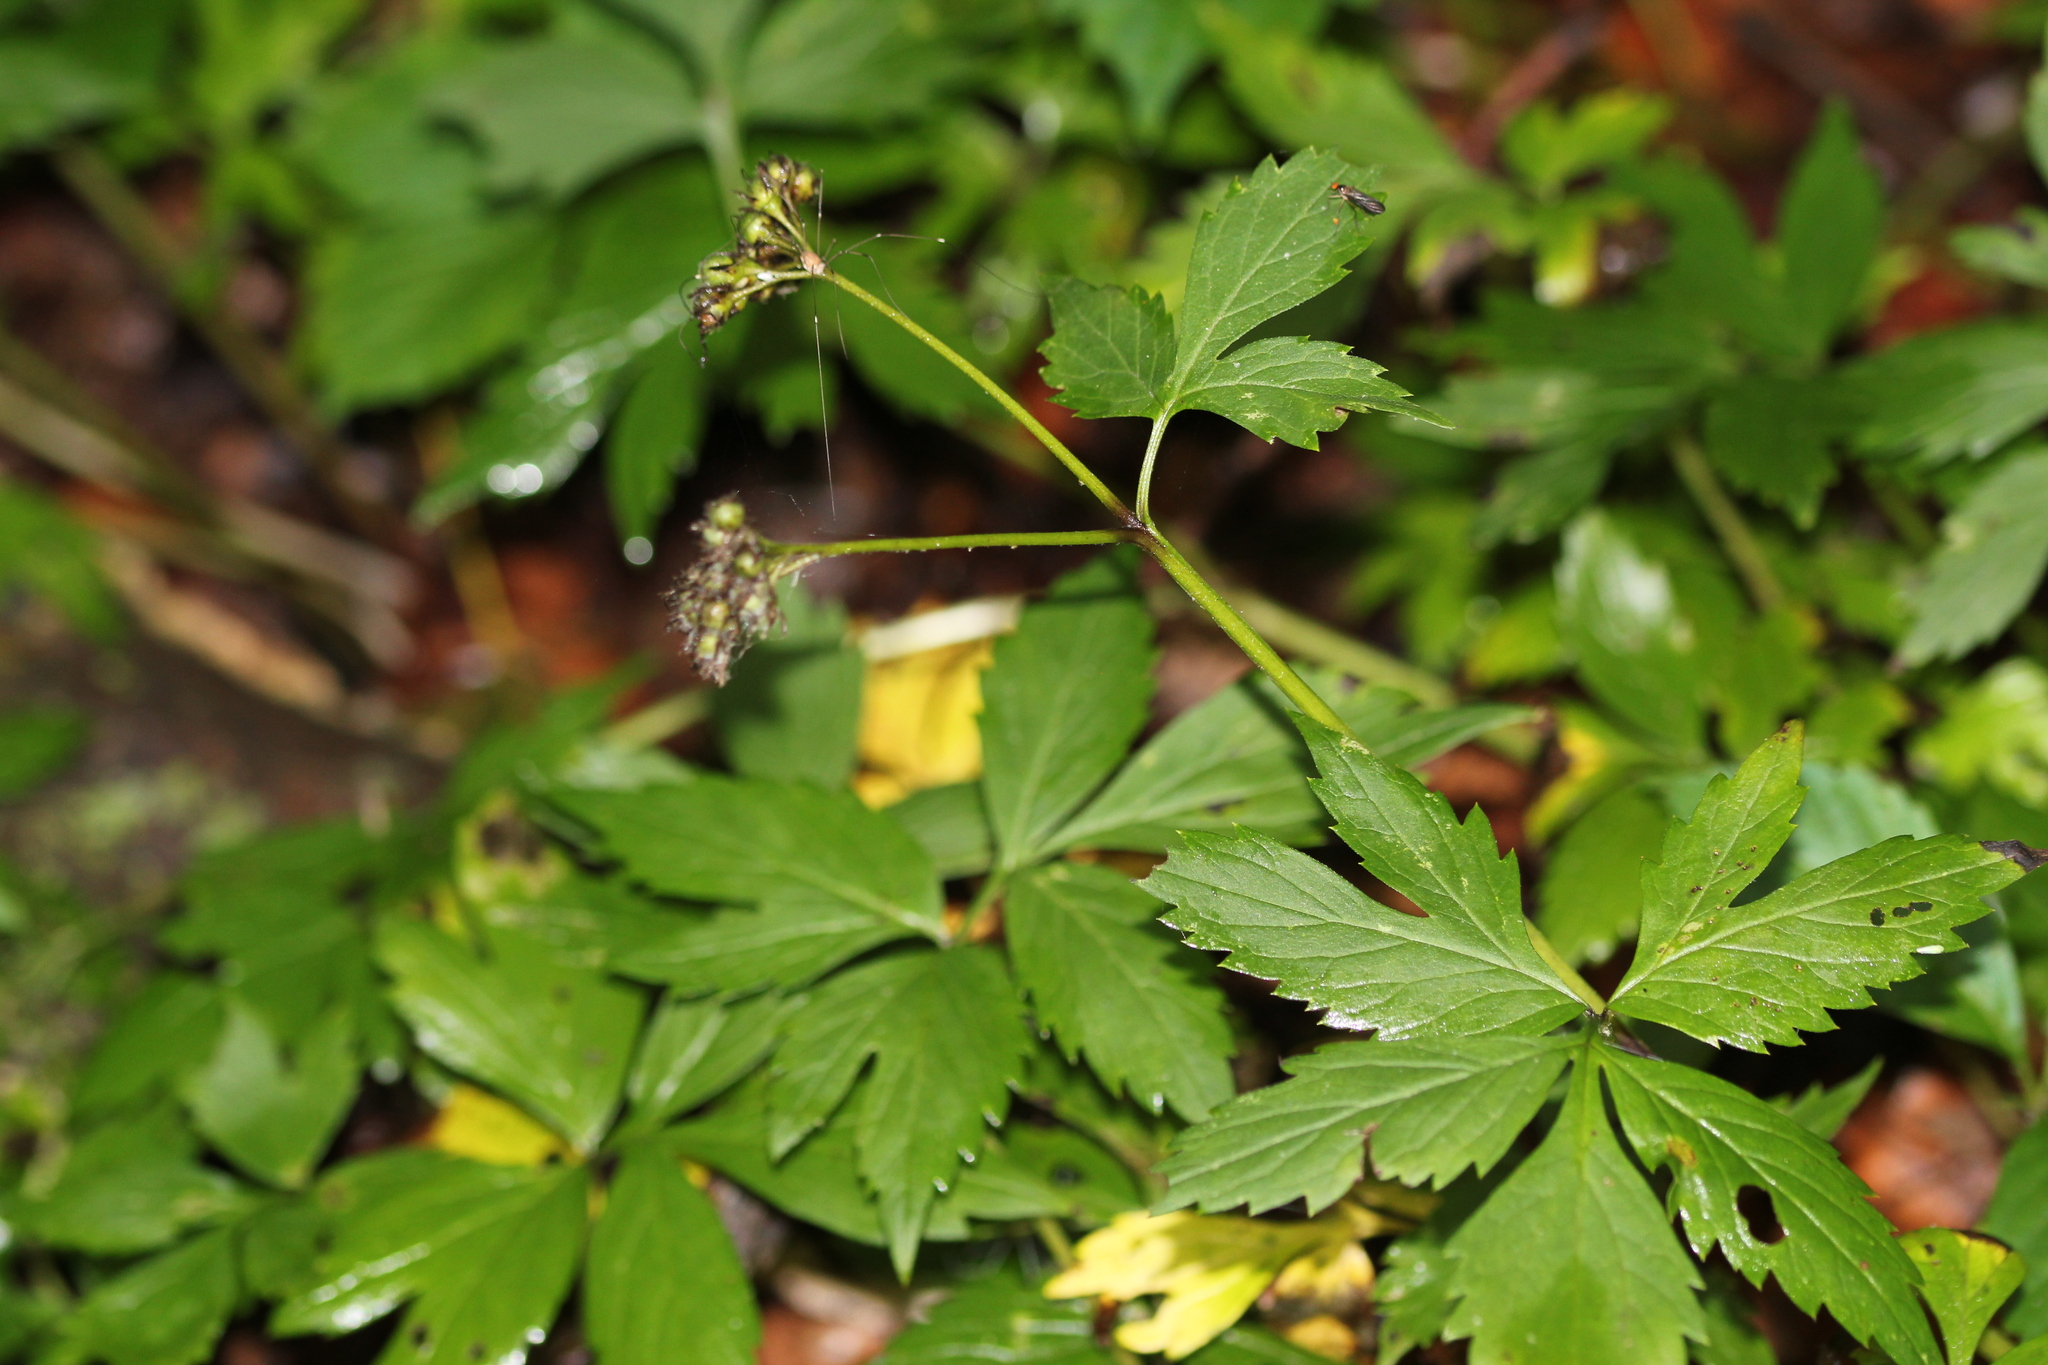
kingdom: Plantae
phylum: Tracheophyta
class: Magnoliopsida
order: Boraginales
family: Hydrophyllaceae
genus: Hydrophyllum
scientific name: Hydrophyllum virginianum
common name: Virginia waterleaf
